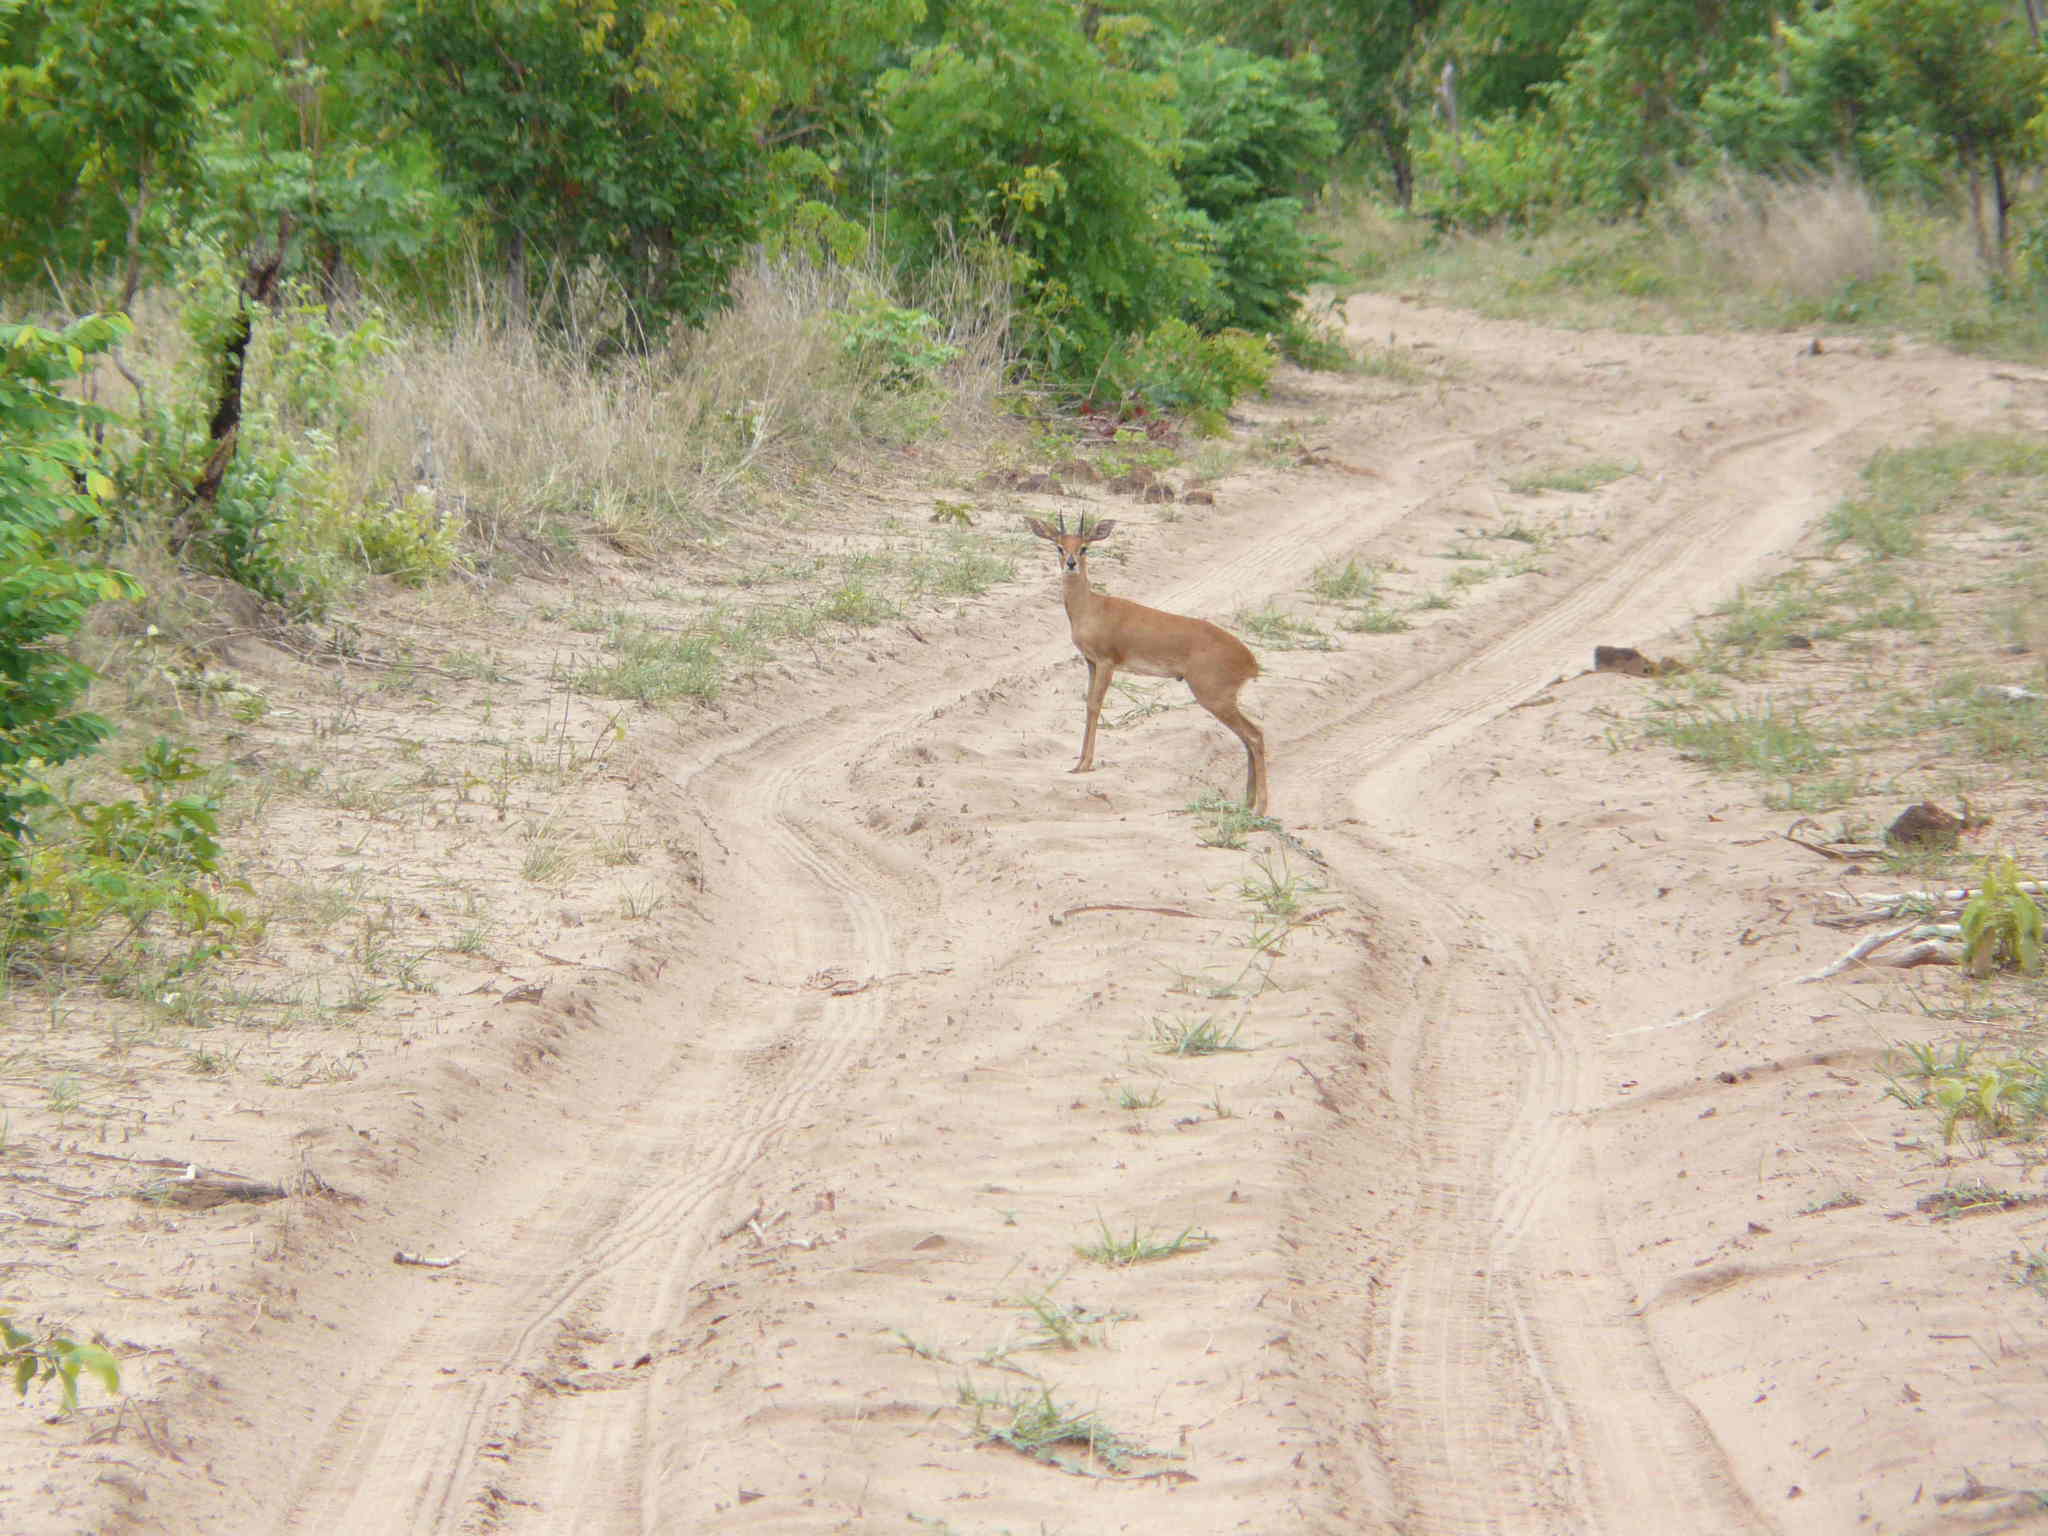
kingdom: Animalia
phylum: Chordata
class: Mammalia
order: Artiodactyla
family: Bovidae
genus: Raphicerus
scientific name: Raphicerus campestris
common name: Steenbok
